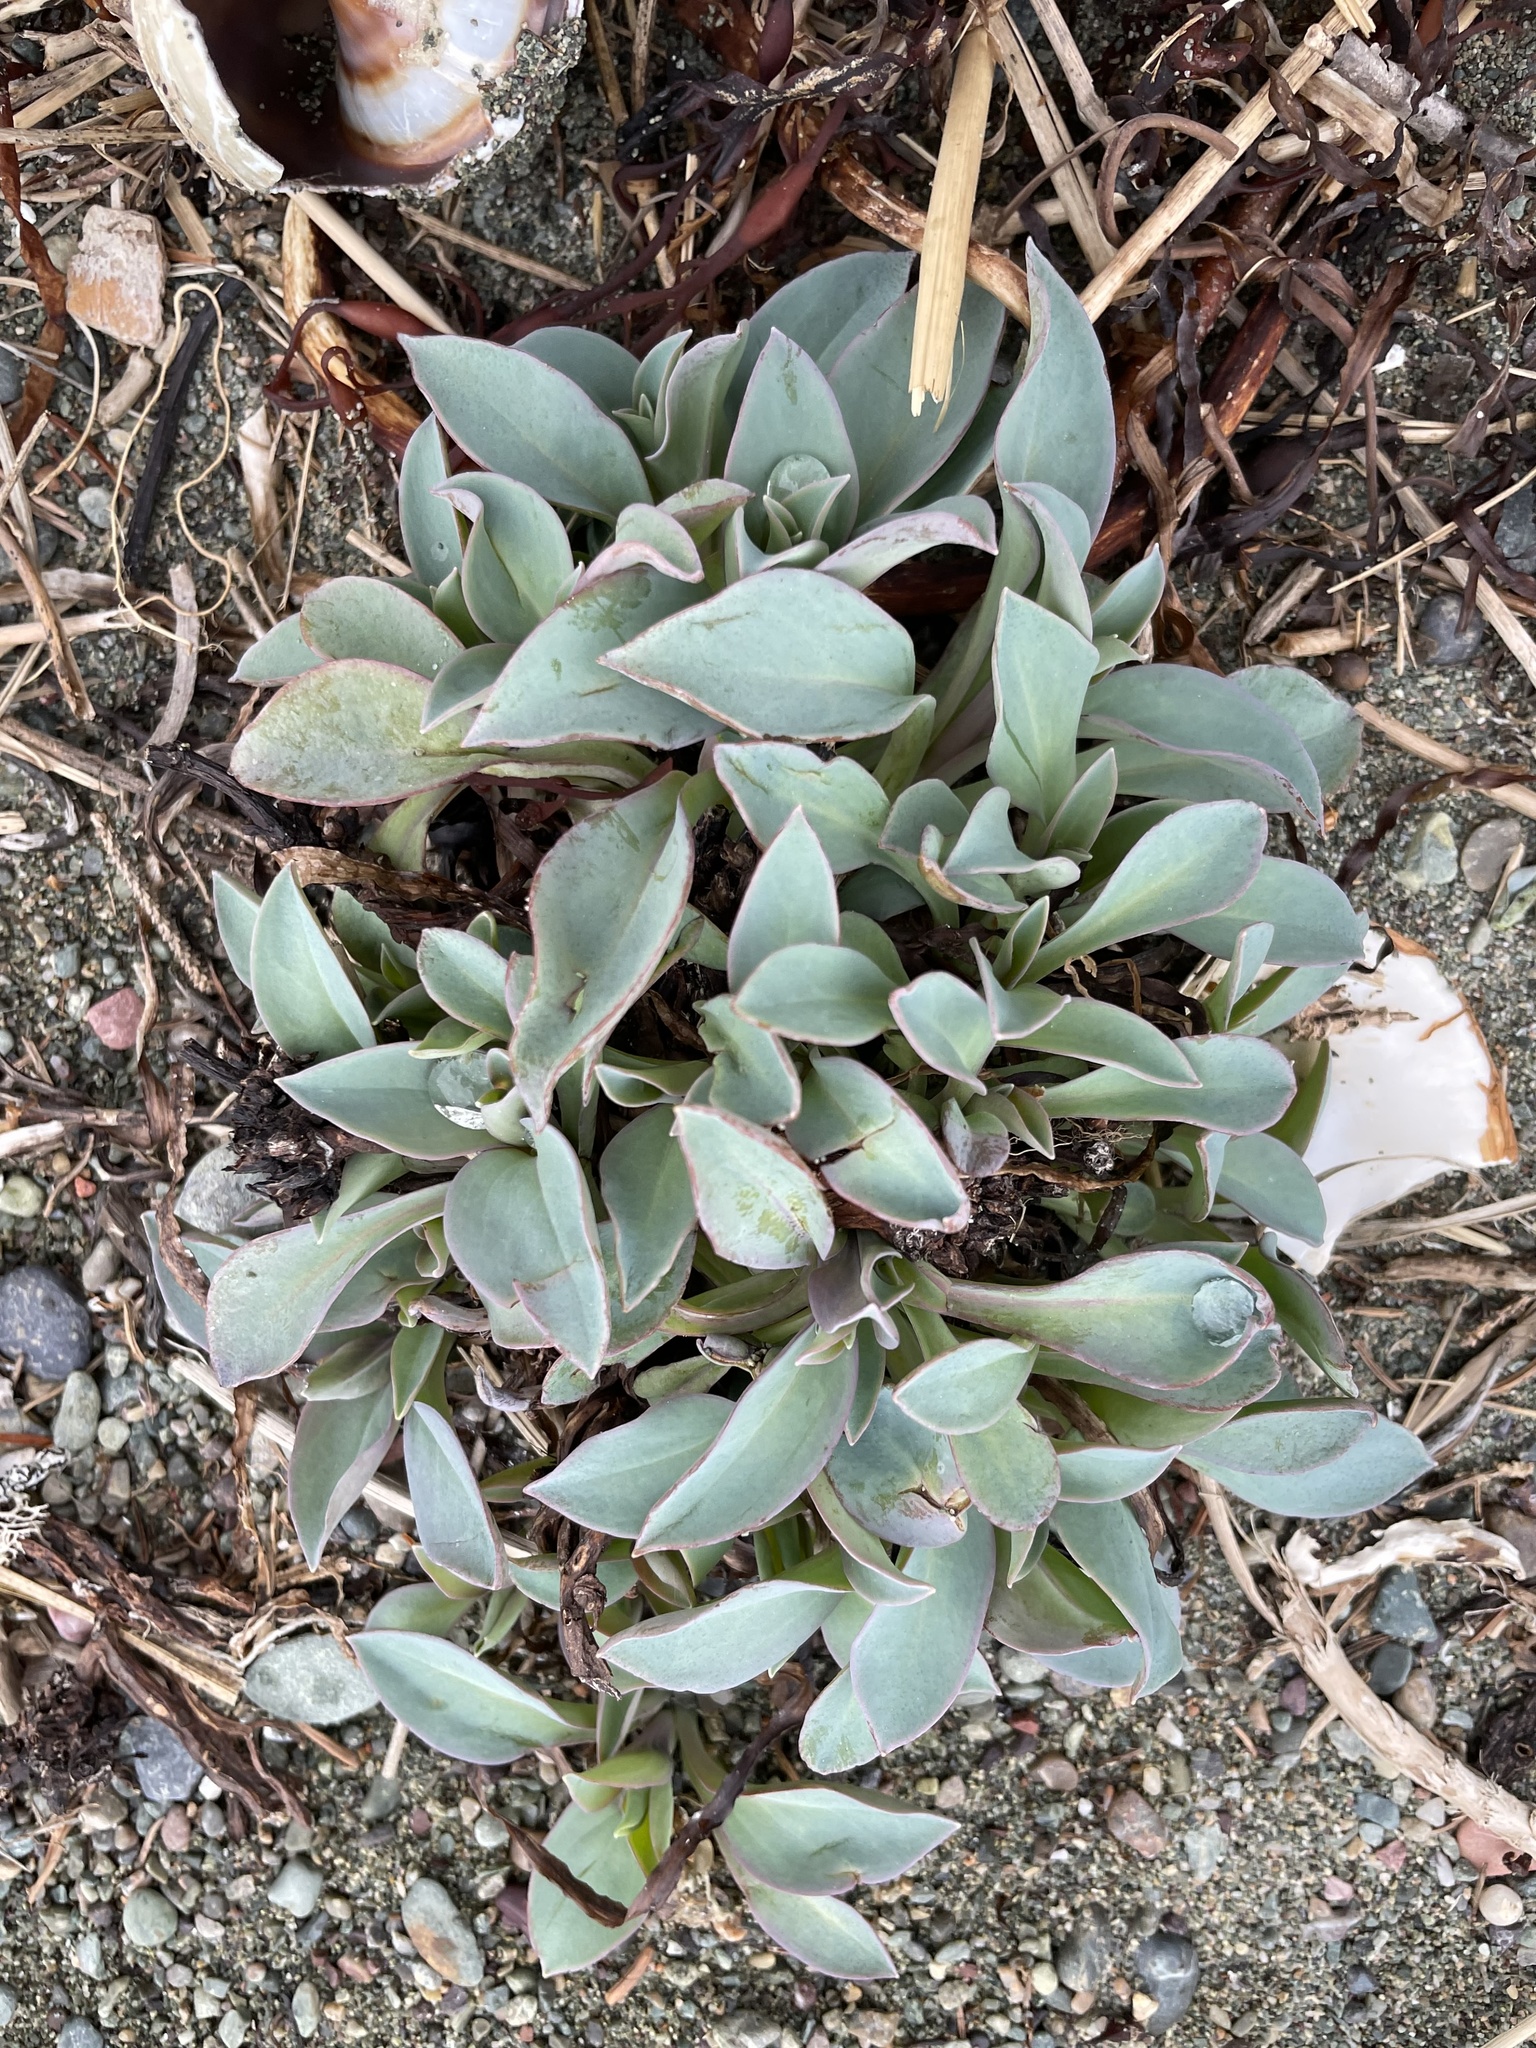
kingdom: Plantae
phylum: Tracheophyta
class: Magnoliopsida
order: Boraginales
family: Boraginaceae
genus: Mertensia
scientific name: Mertensia maritima
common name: Oysterplant
